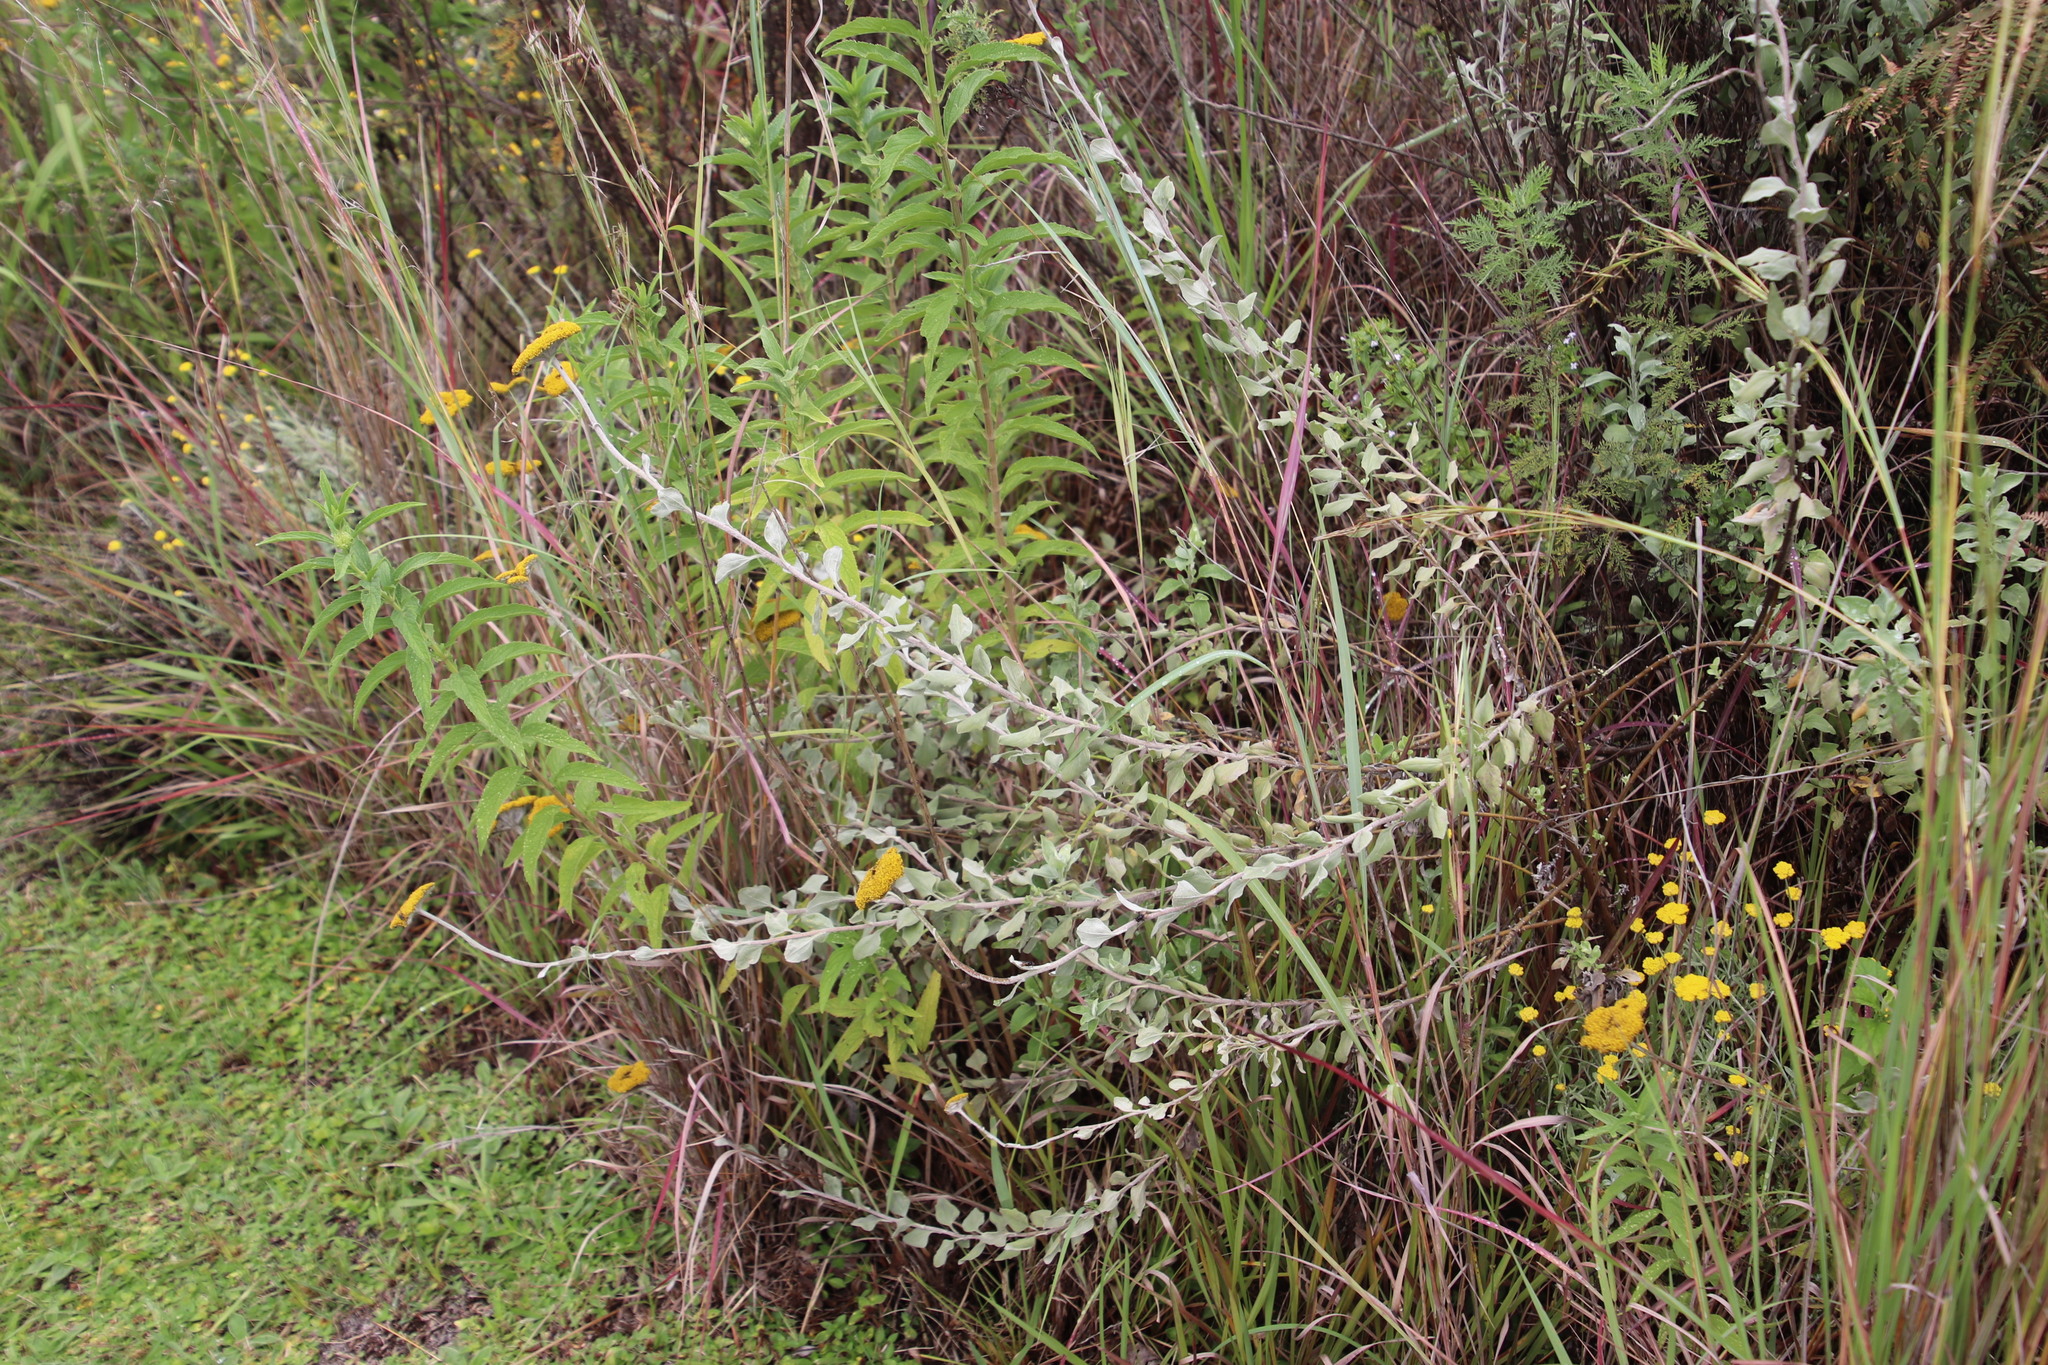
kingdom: Plantae
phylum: Tracheophyta
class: Magnoliopsida
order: Asterales
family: Asteraceae
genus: Helichrysum
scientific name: Helichrysum umbraculigerum
